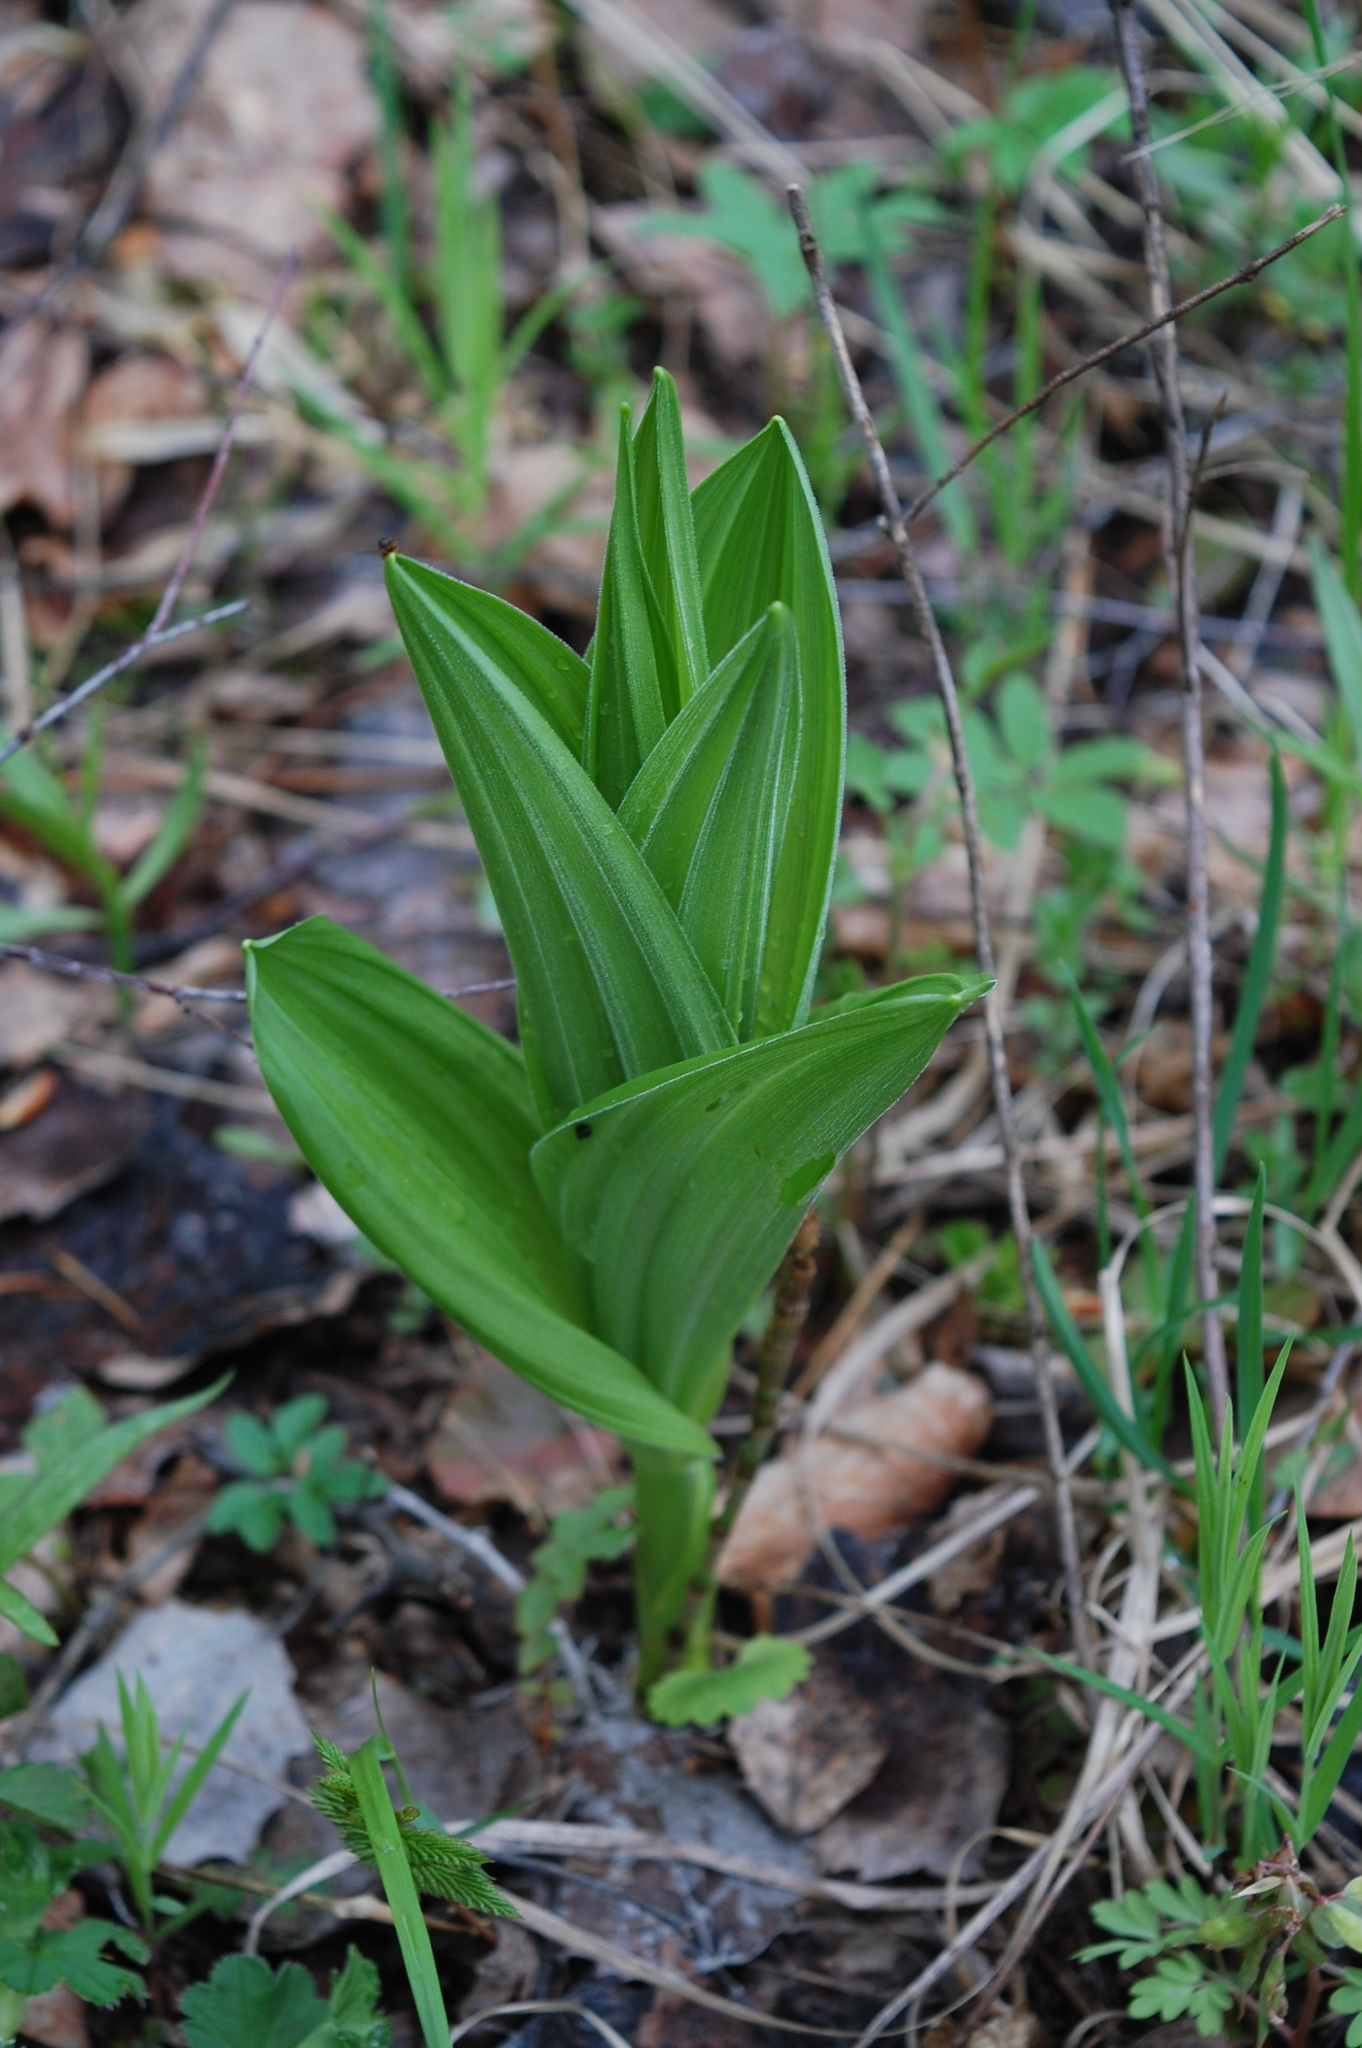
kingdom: Plantae
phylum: Tracheophyta
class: Liliopsida
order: Liliales
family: Melanthiaceae
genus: Veratrum
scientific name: Veratrum lobelianum
